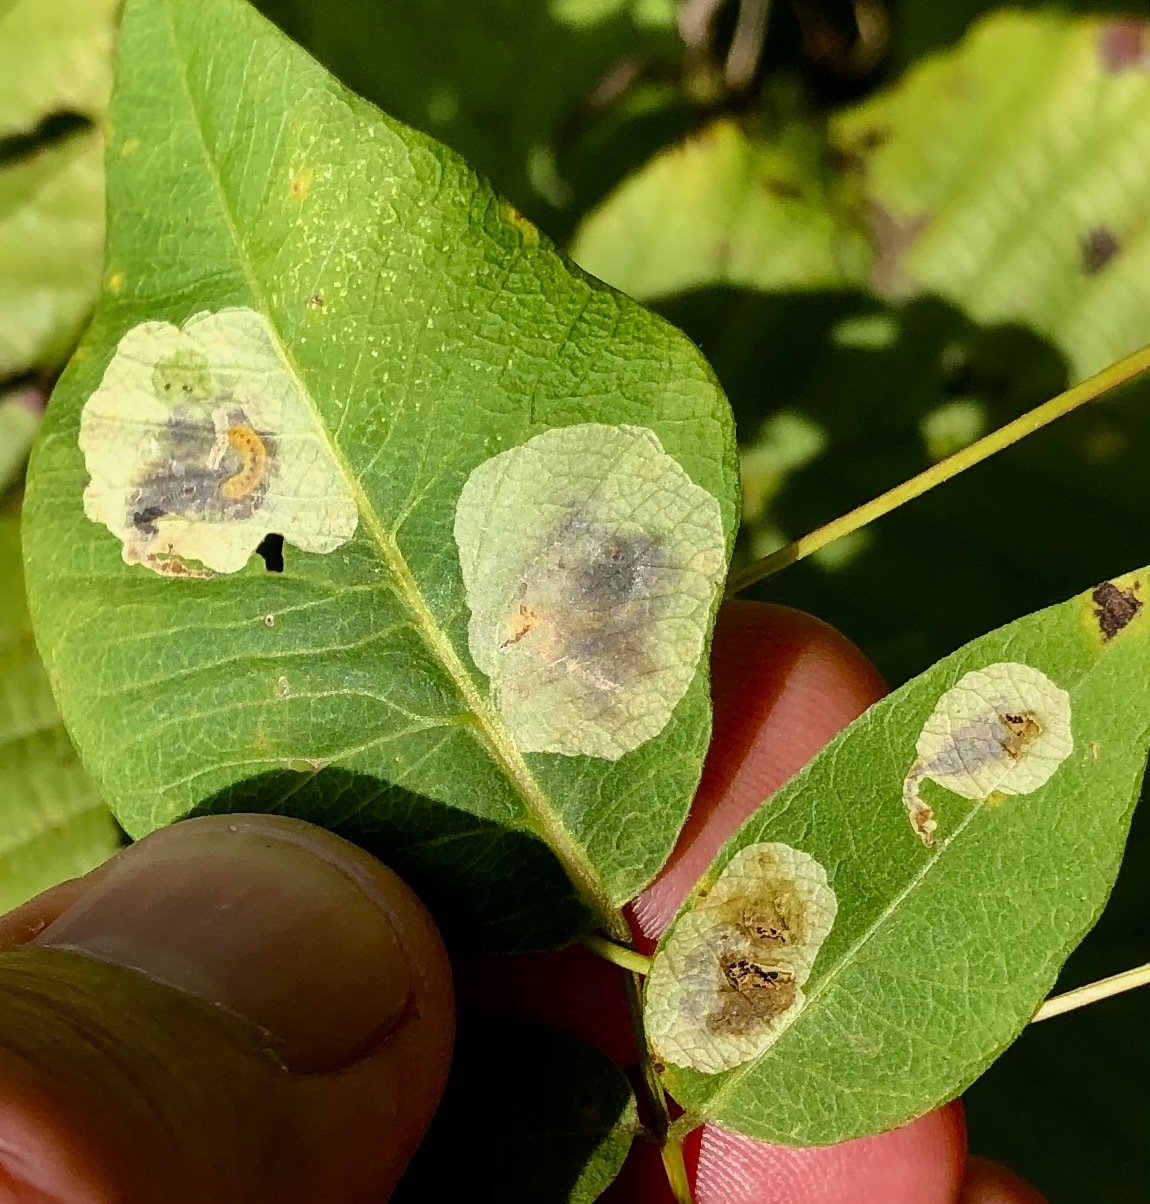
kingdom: Animalia
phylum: Arthropoda
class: Insecta
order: Lepidoptera
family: Gracillariidae
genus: Anarsioses
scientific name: Anarsioses aberrans
